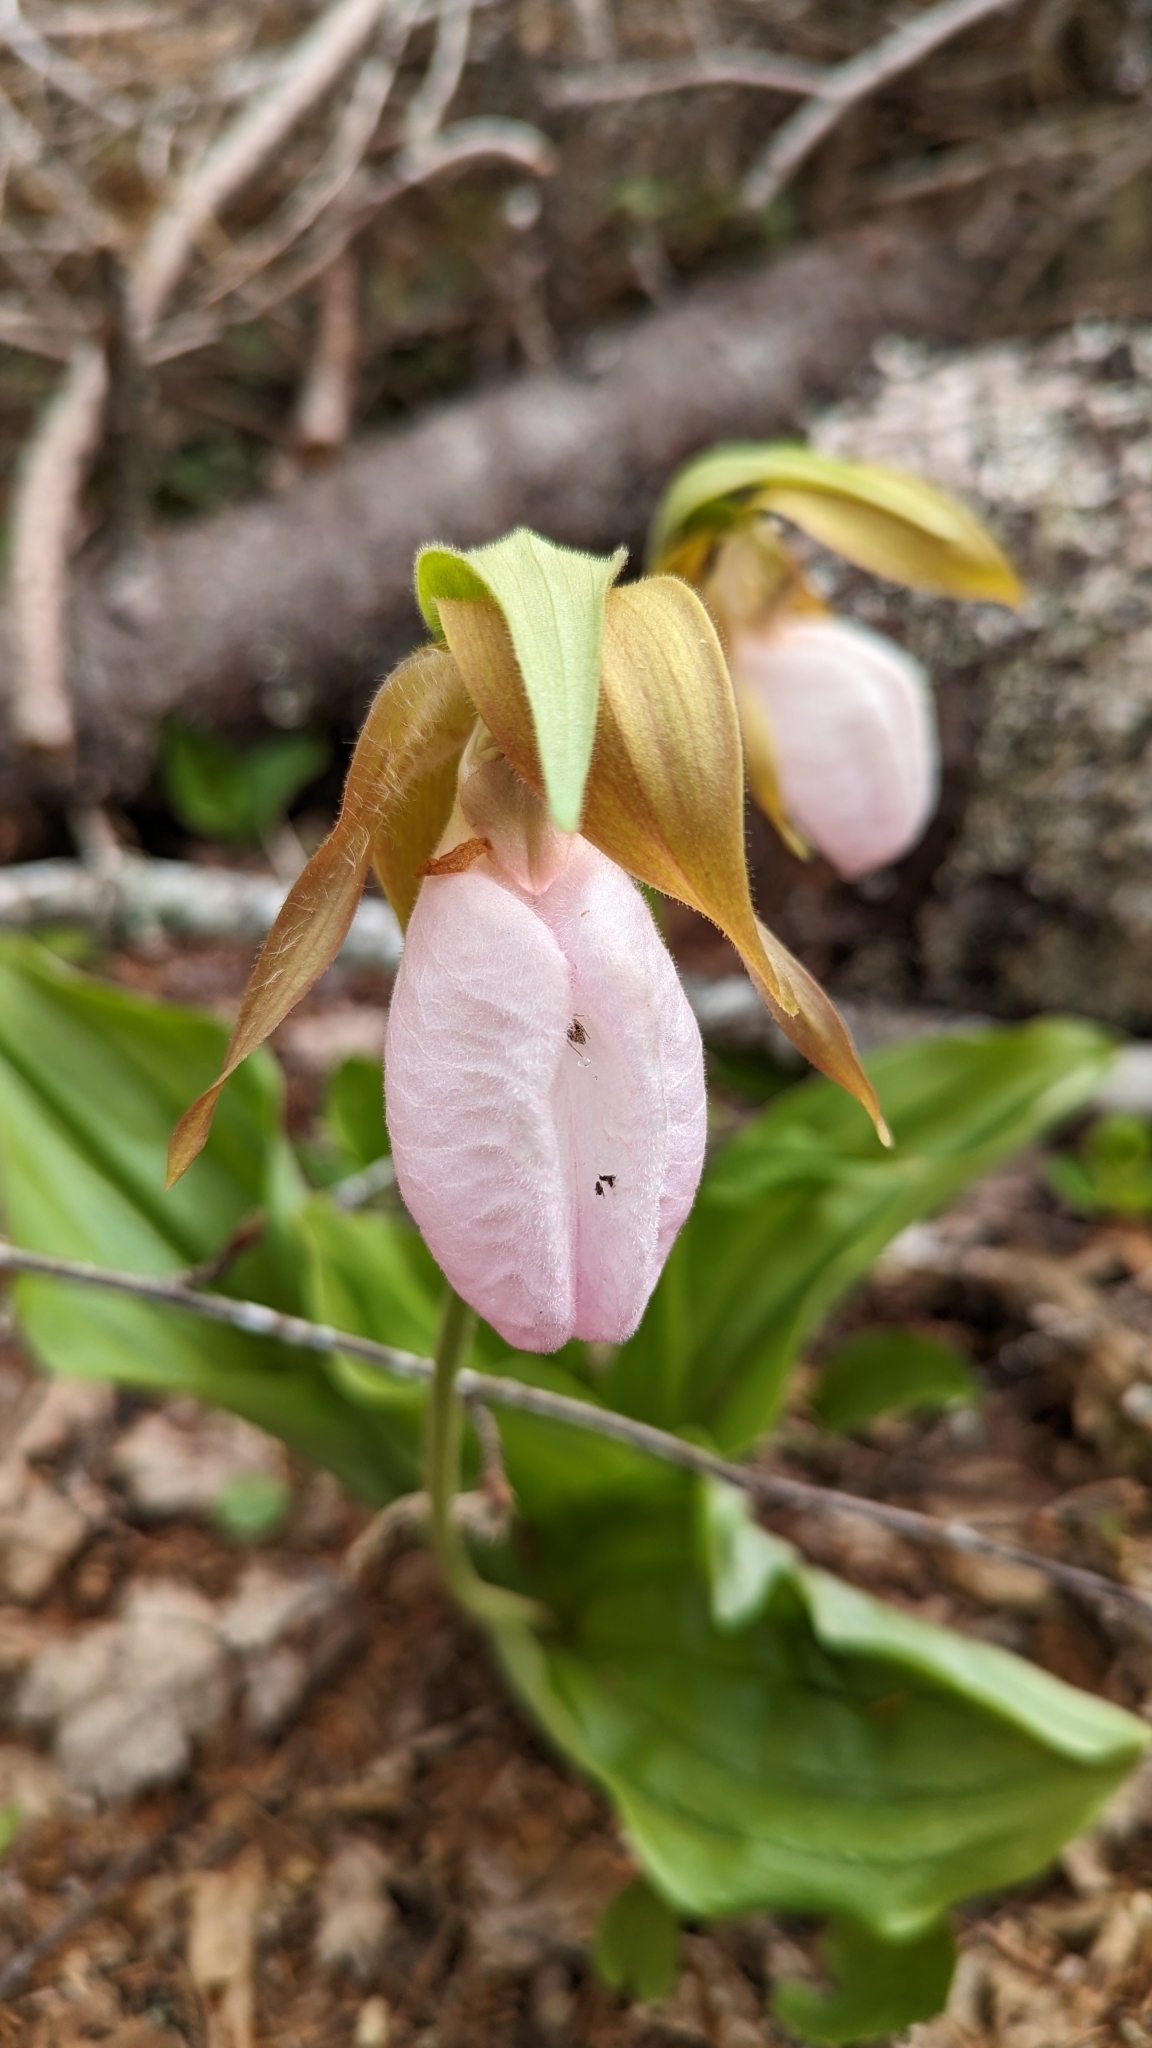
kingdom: Plantae
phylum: Tracheophyta
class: Liliopsida
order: Asparagales
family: Orchidaceae
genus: Cypripedium
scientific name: Cypripedium acaule
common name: Pink lady's-slipper
